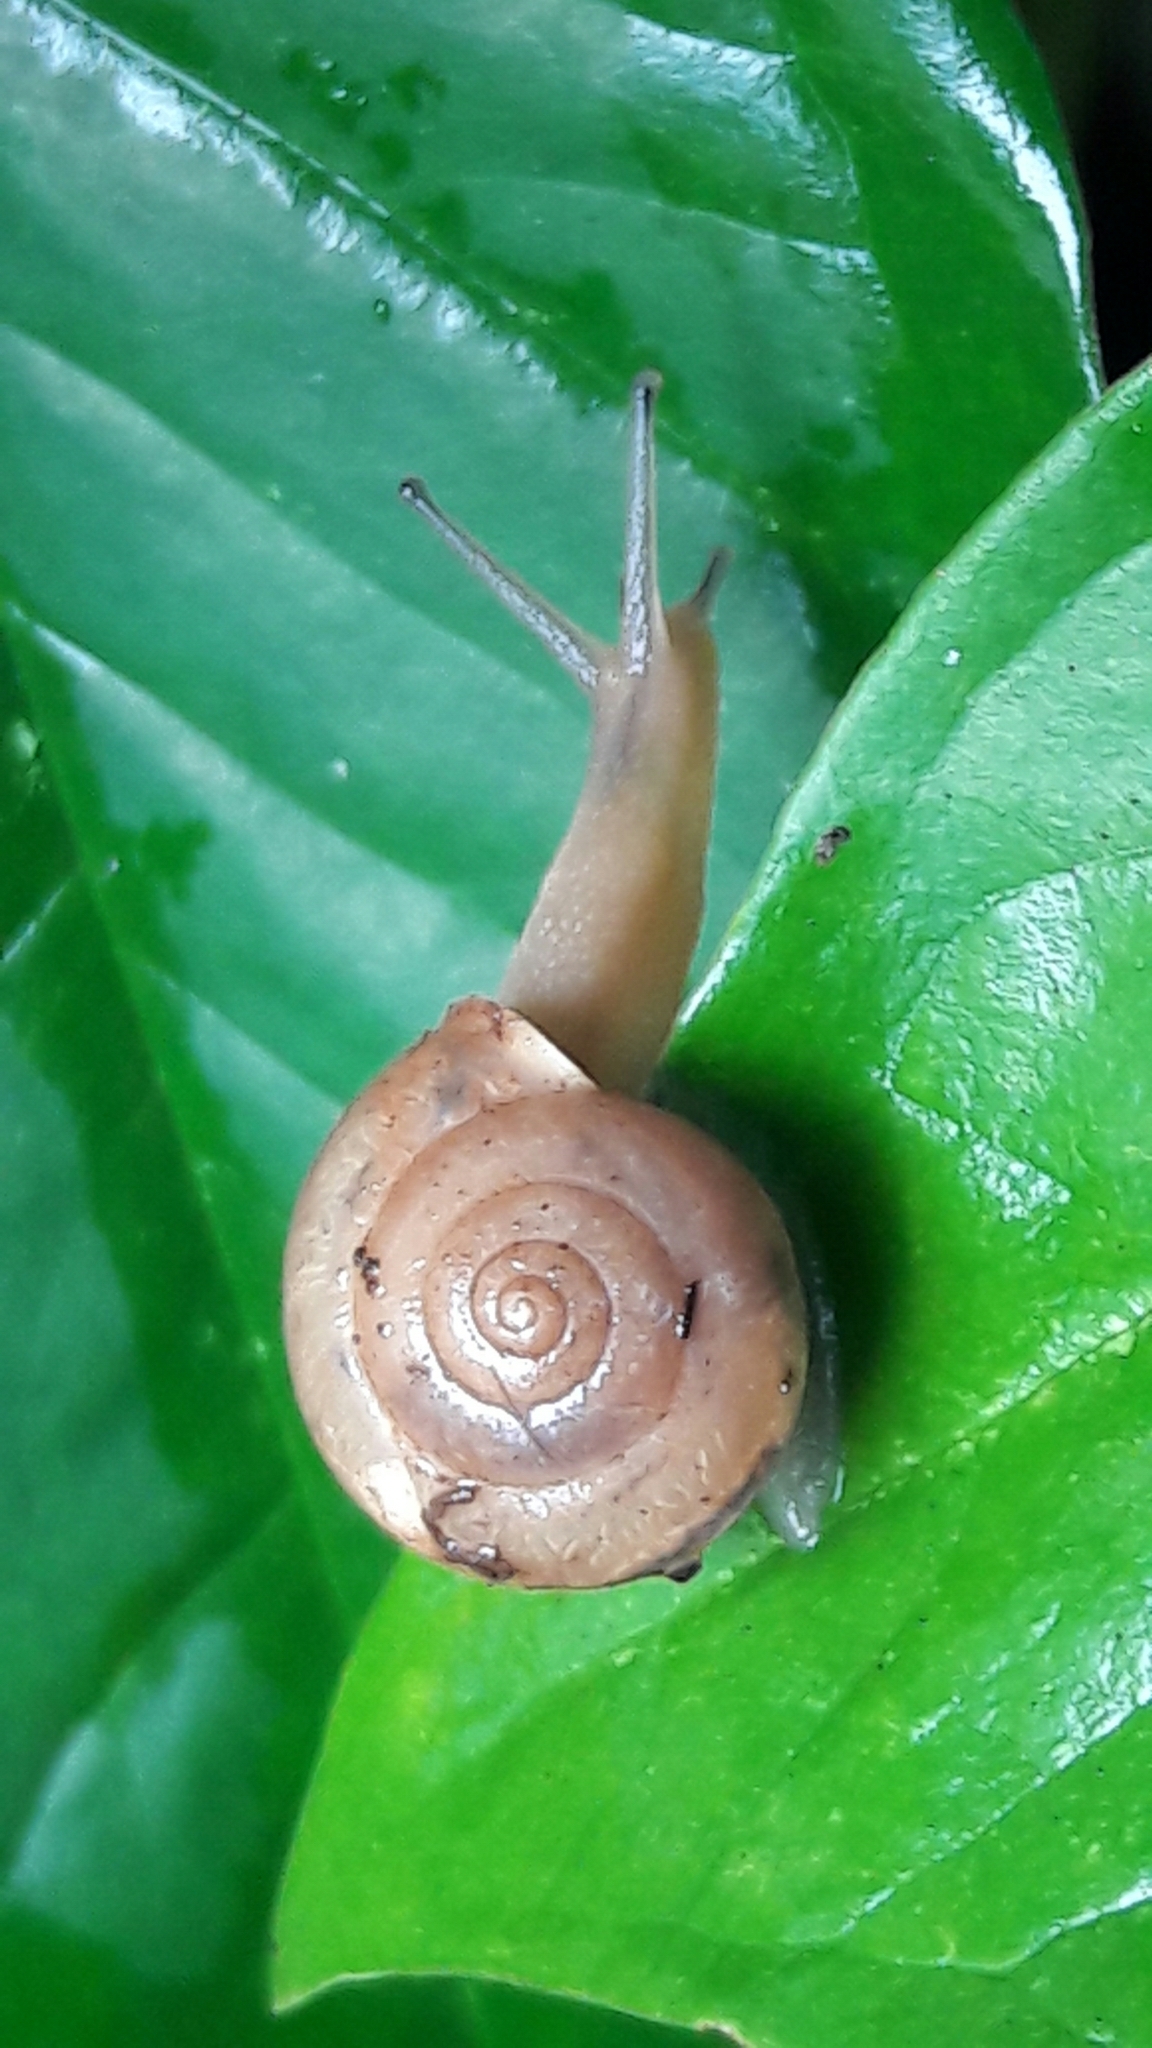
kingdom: Animalia
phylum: Mollusca
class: Gastropoda
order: Stylommatophora
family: Camaenidae
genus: Bradybaena
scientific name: Bradybaena similaris
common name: Asian trampsnail
